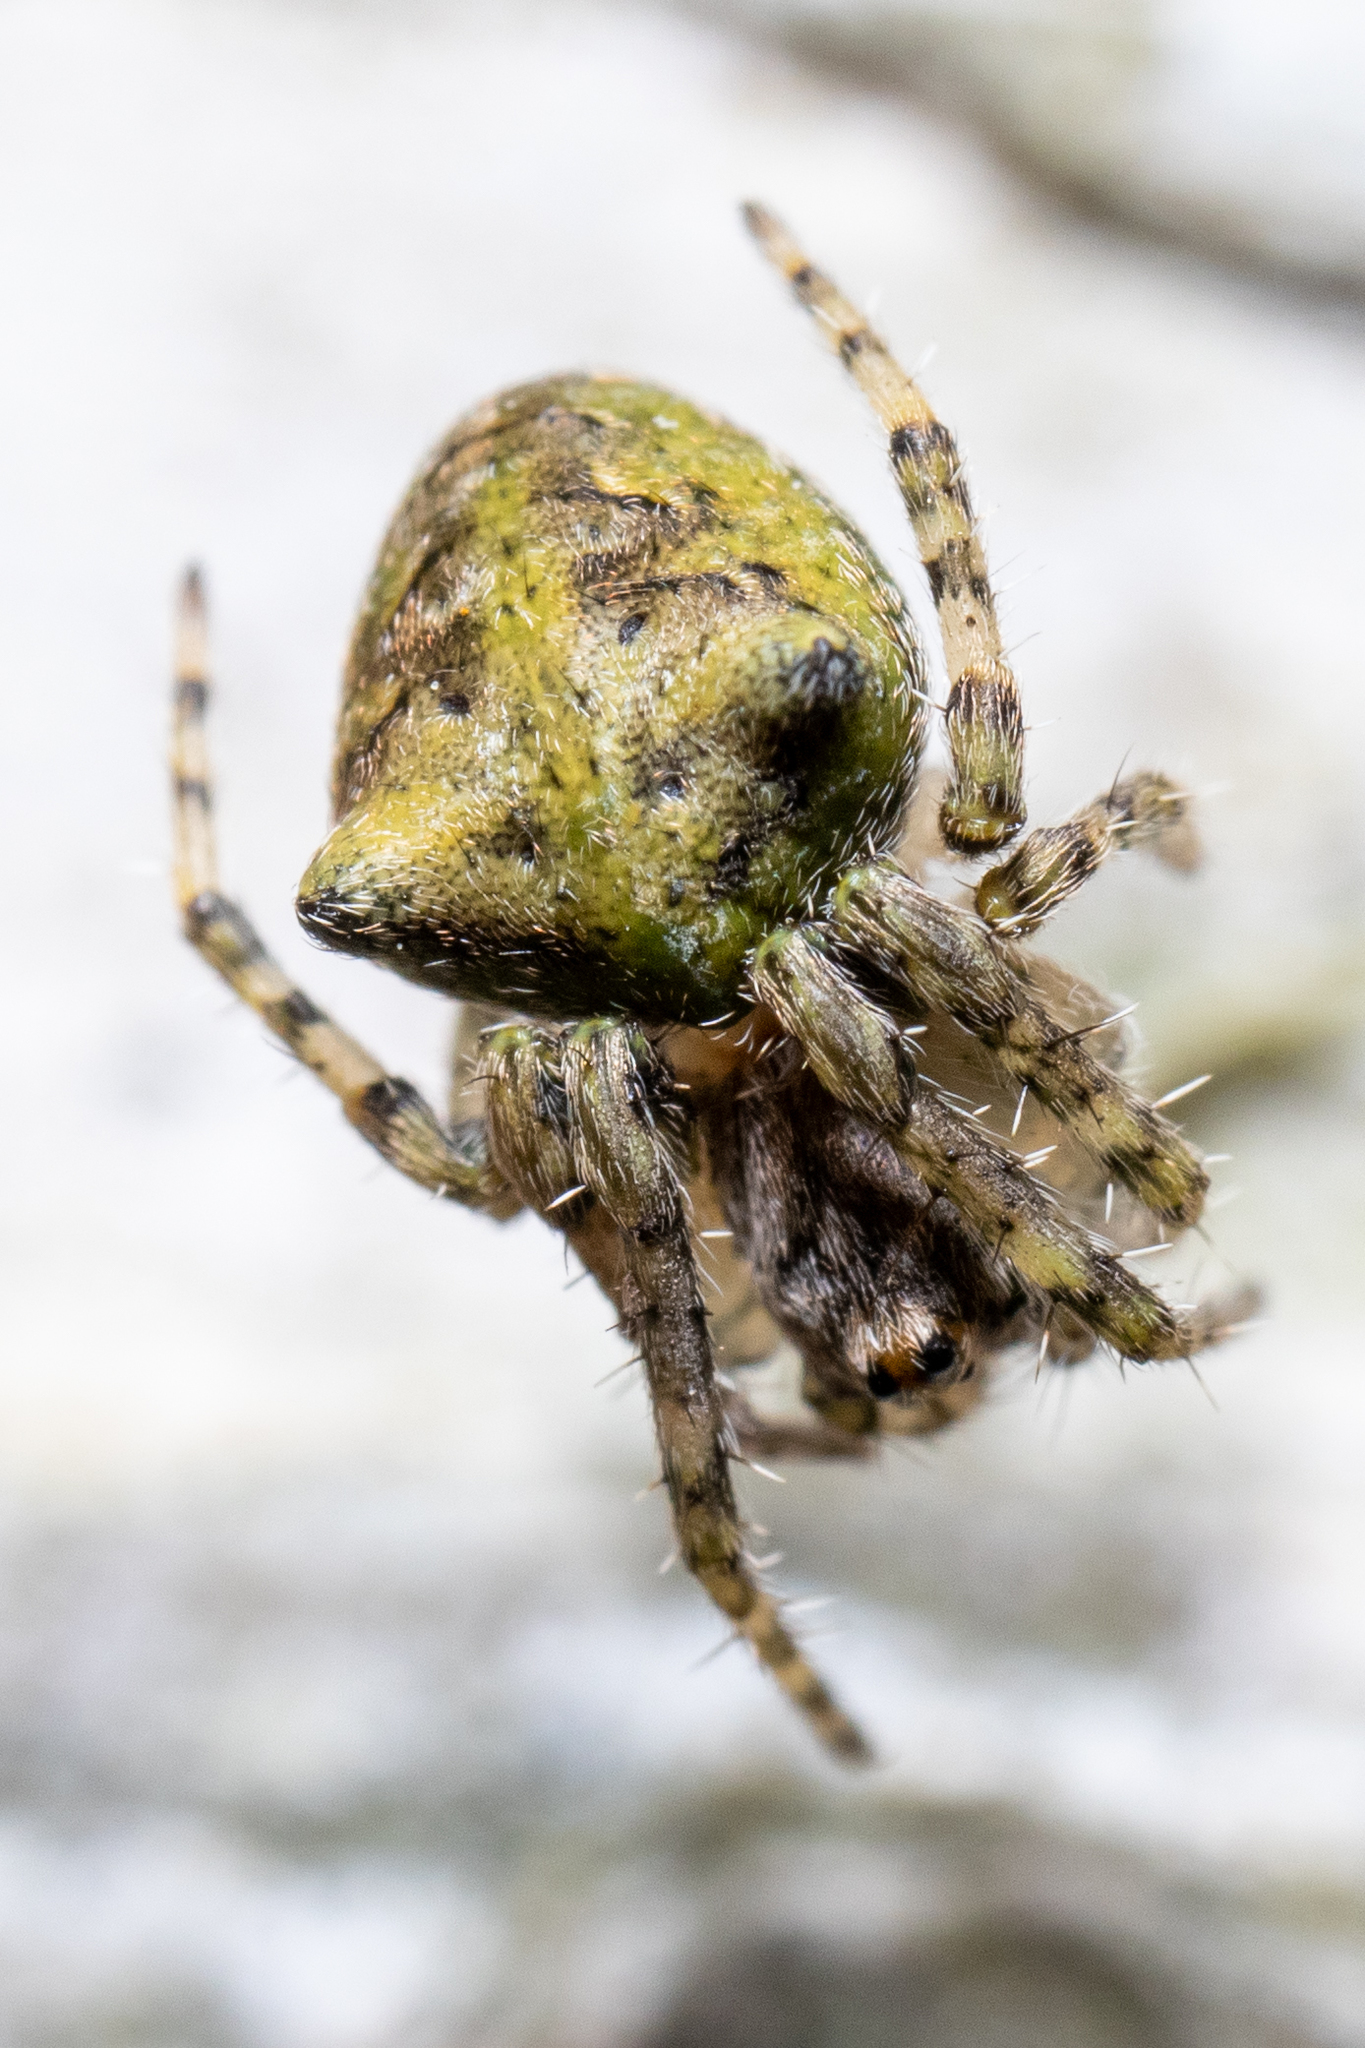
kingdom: Animalia
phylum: Arthropoda
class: Arachnida
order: Araneae
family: Araneidae
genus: Gibbaranea
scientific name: Gibbaranea gibbosa
